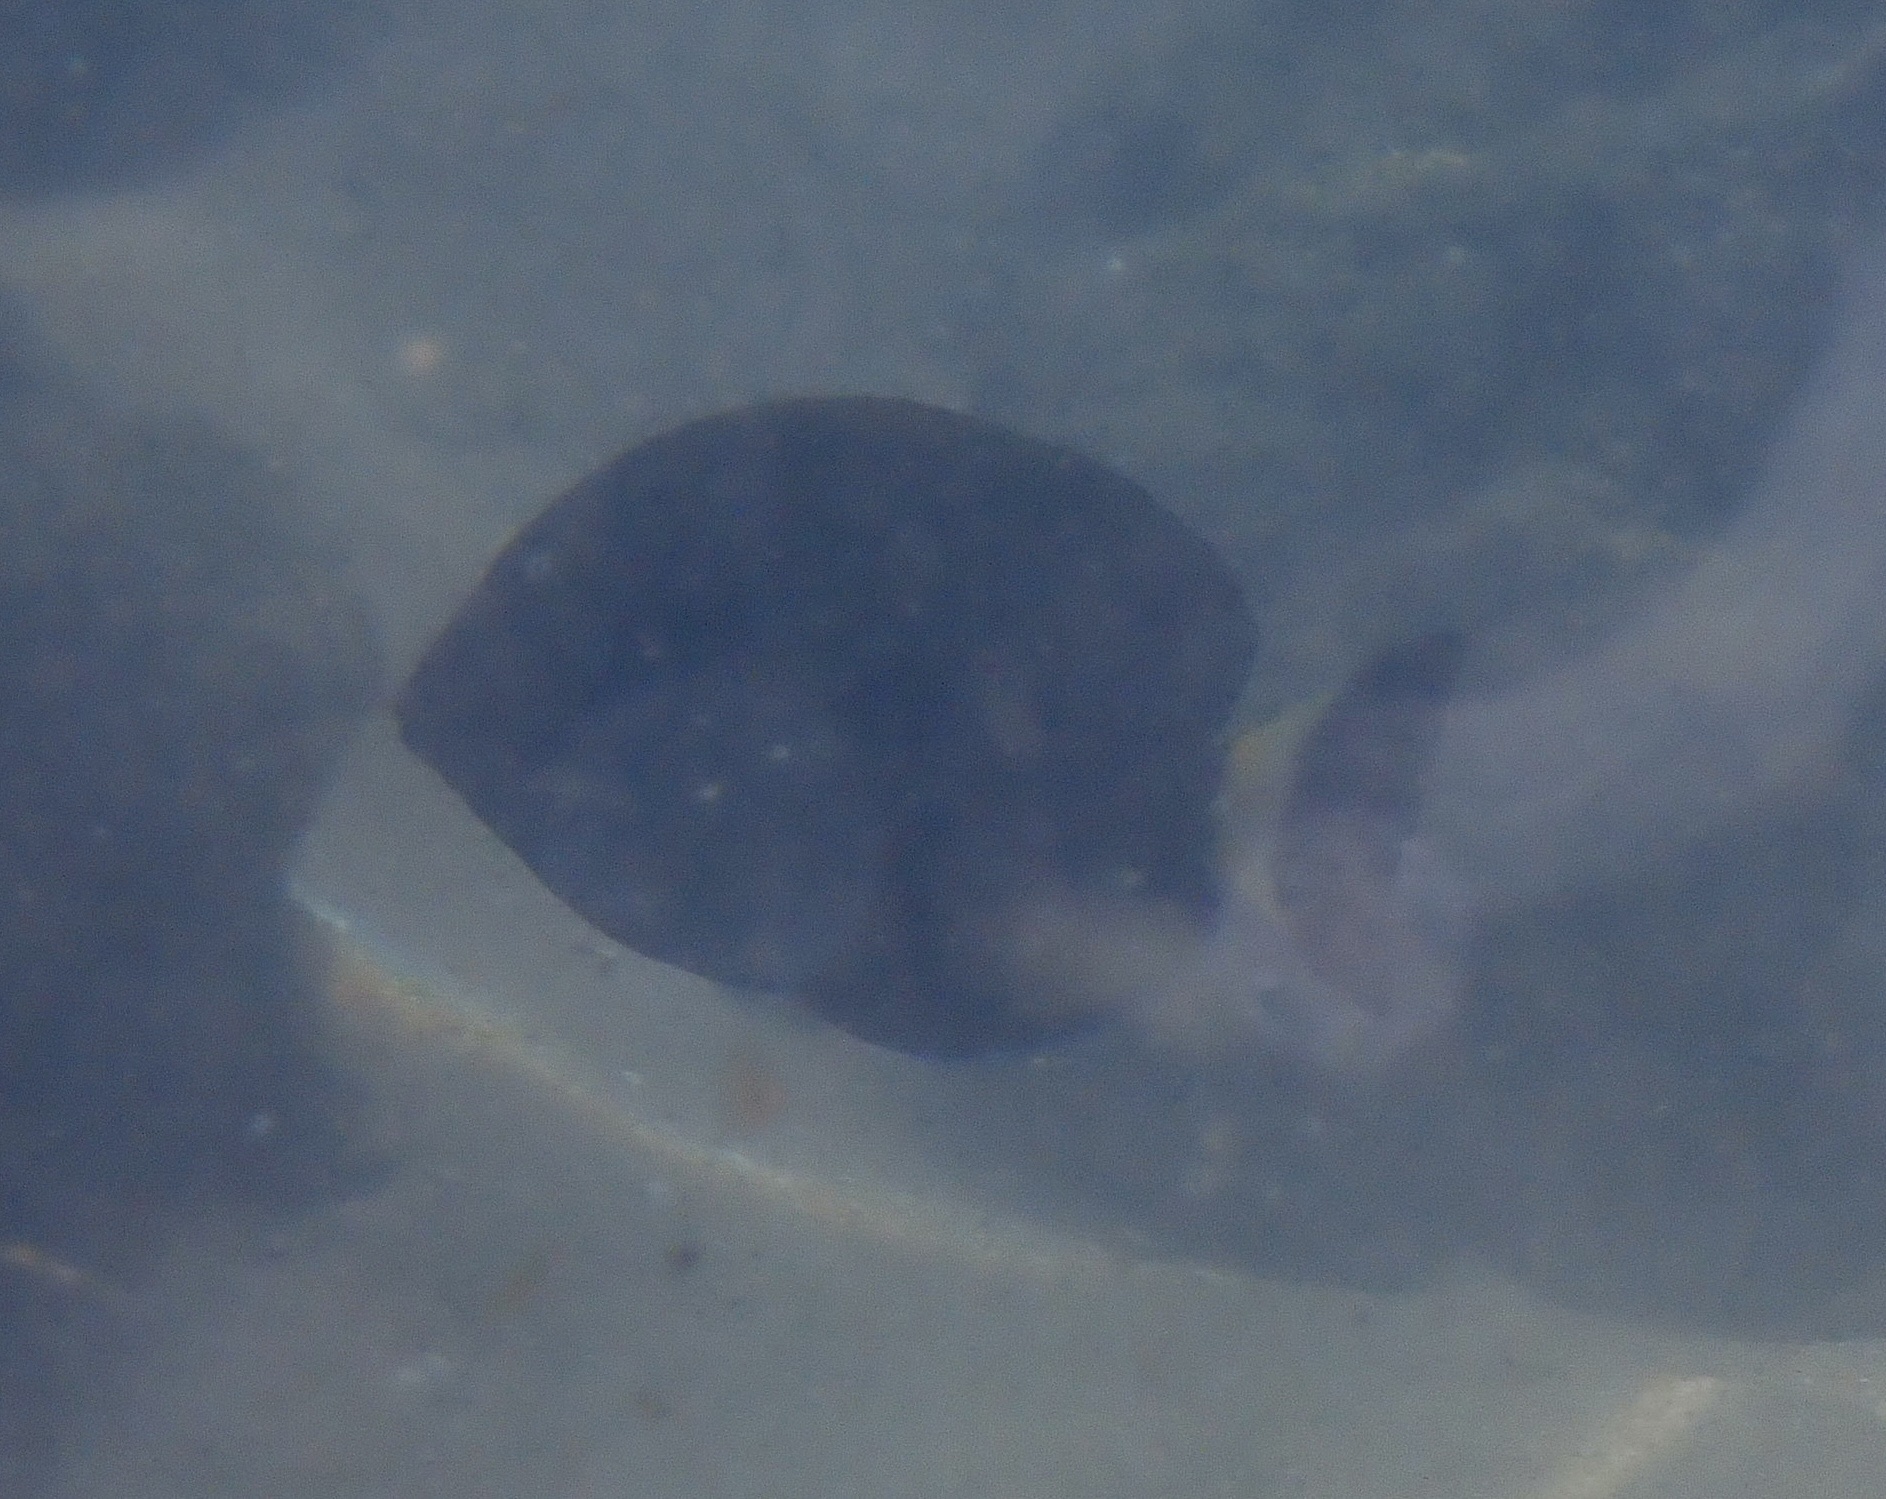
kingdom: Animalia
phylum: Chordata
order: Perciformes
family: Acanthuridae
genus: Acanthurus
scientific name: Acanthurus dussumieri
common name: Dussumier's surgeonfish
